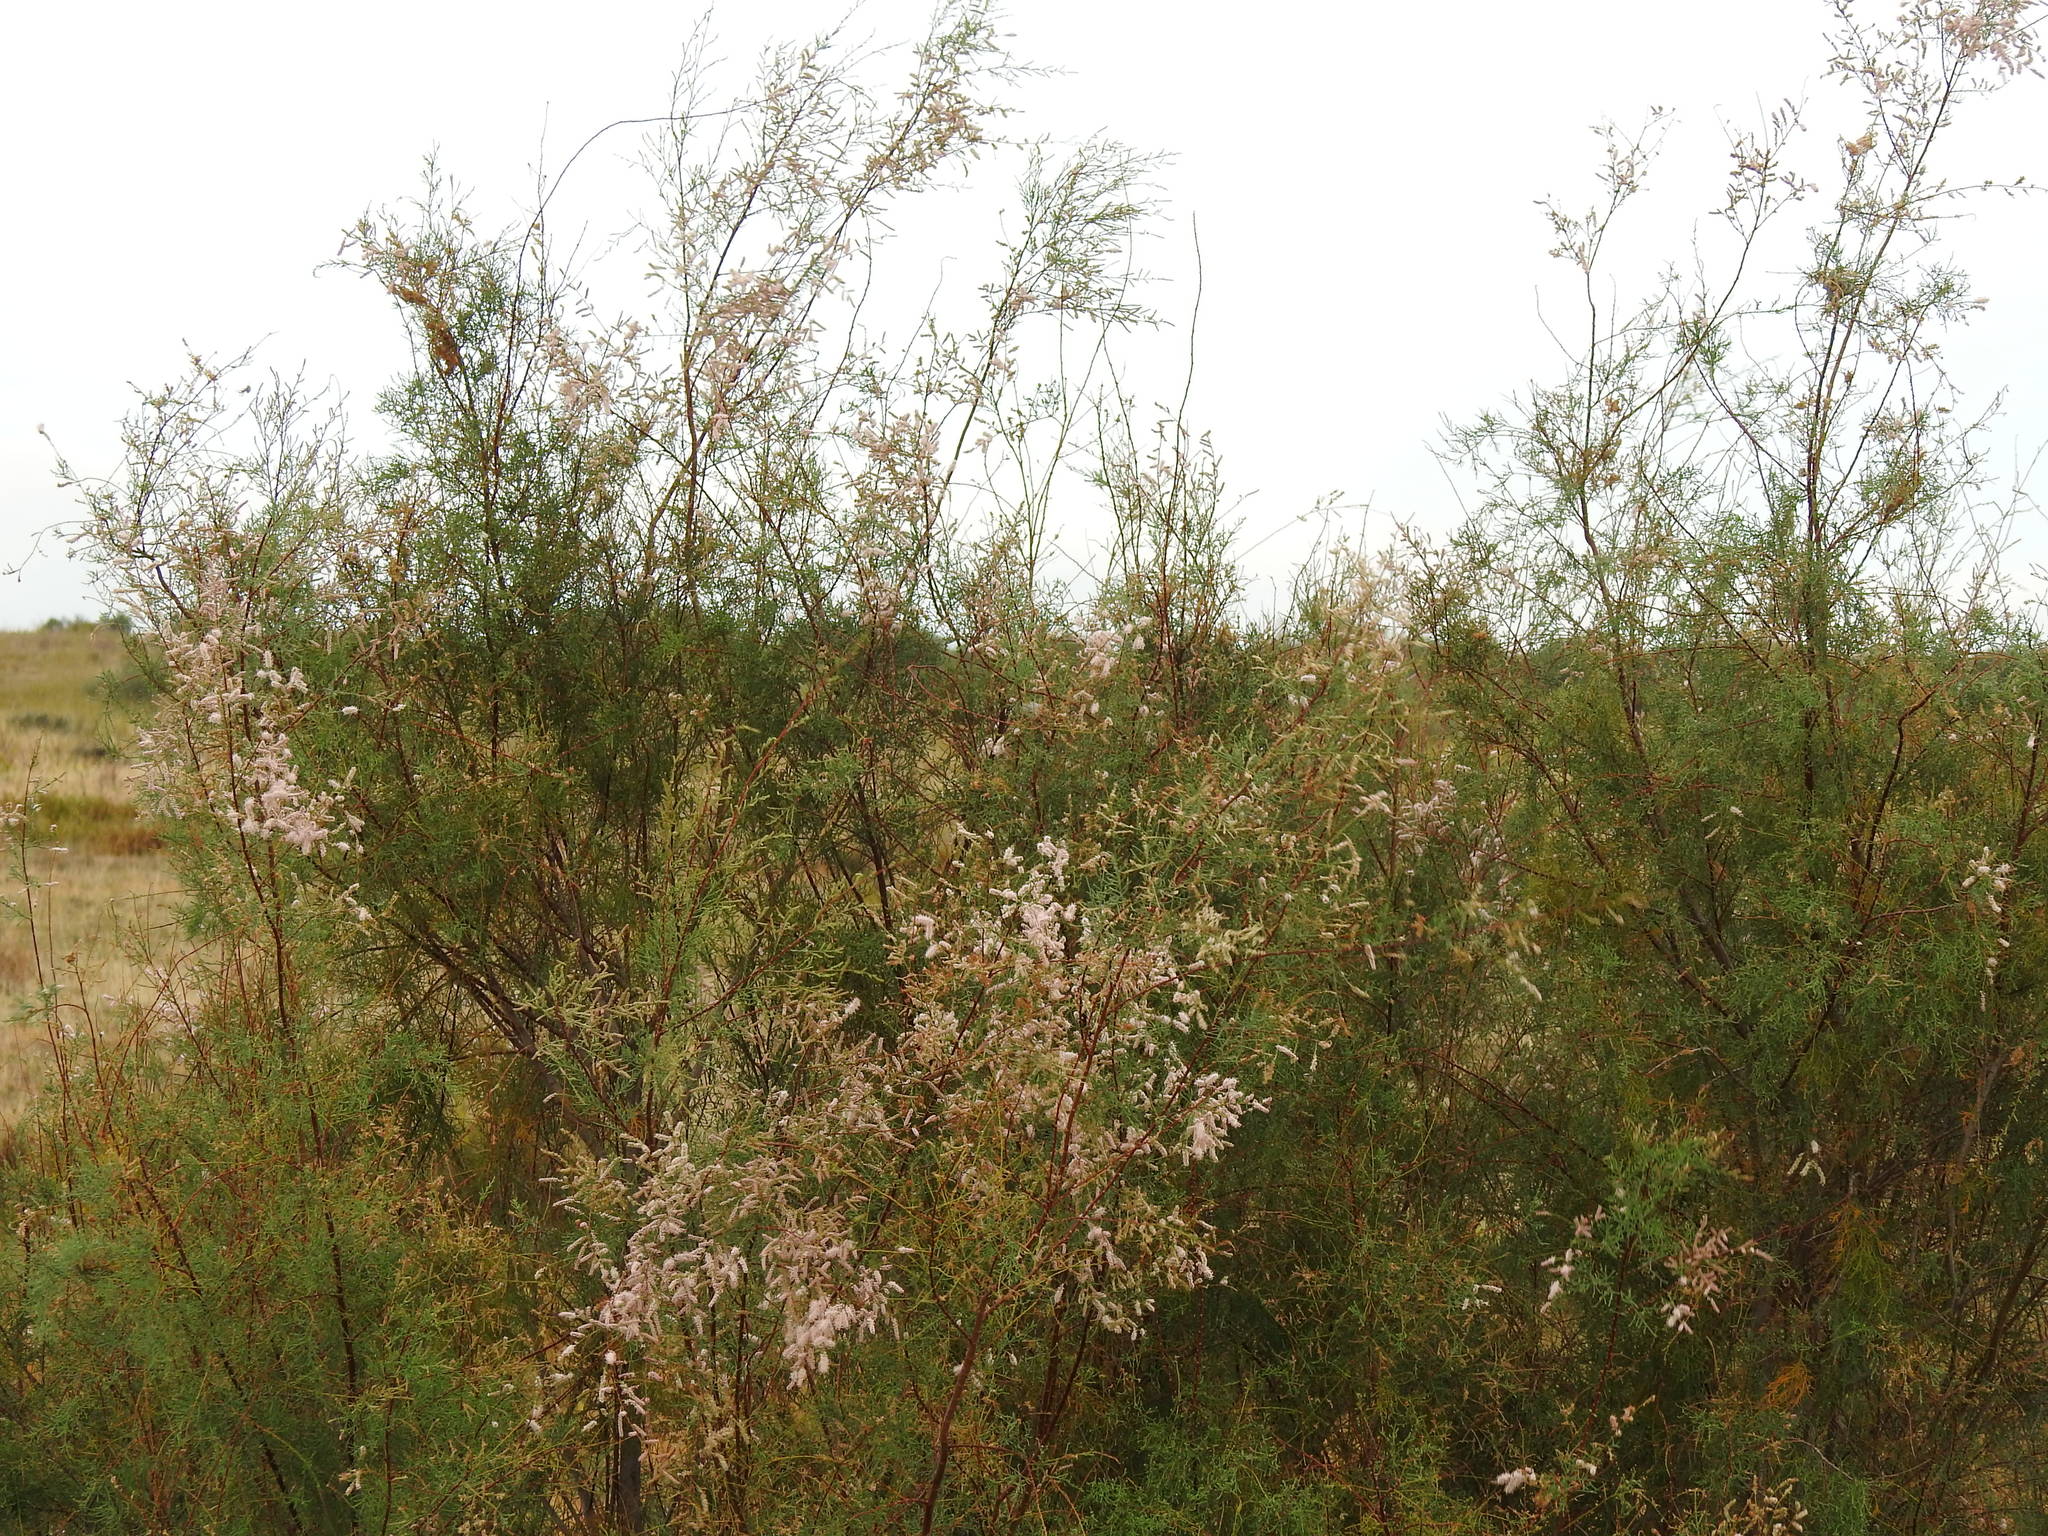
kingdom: Plantae
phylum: Tracheophyta
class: Magnoliopsida
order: Caryophyllales
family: Tamaricaceae
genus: Tamarix
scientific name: Tamarix africana
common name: African tamarisk
